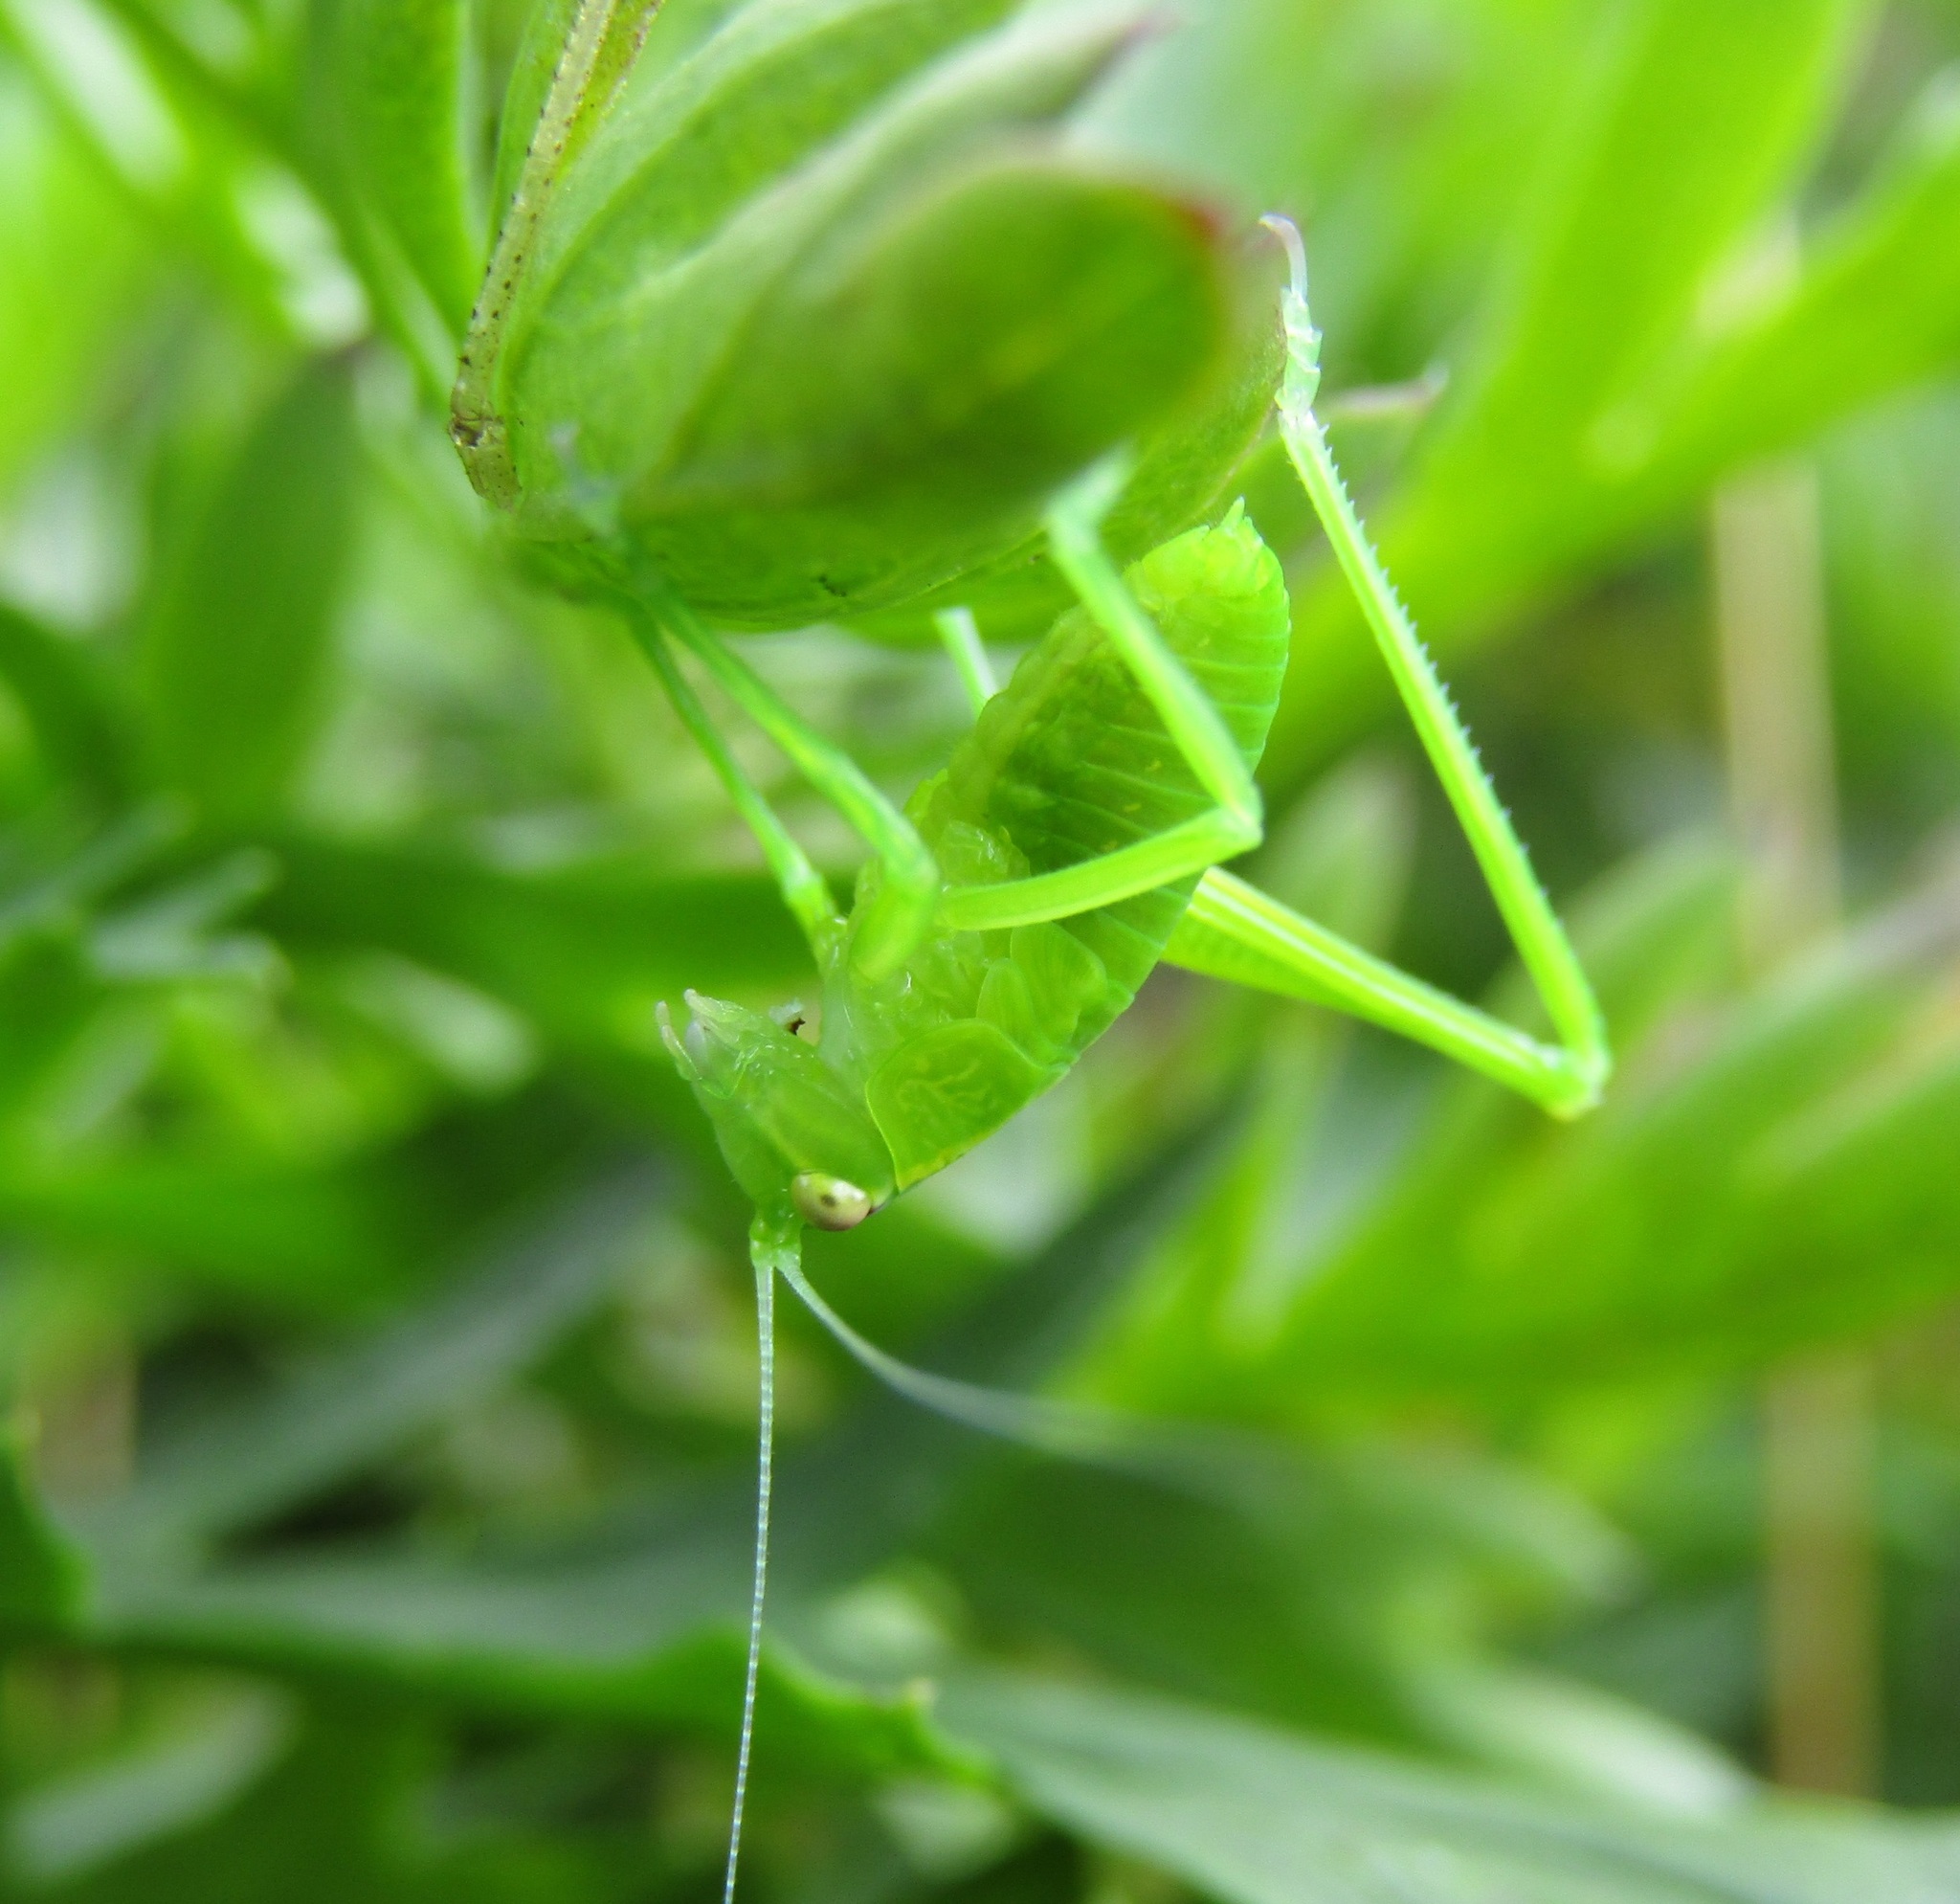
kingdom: Animalia
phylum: Arthropoda
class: Insecta
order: Orthoptera
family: Tettigoniidae
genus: Caedicia
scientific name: Caedicia simplex
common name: Common garden katydid
